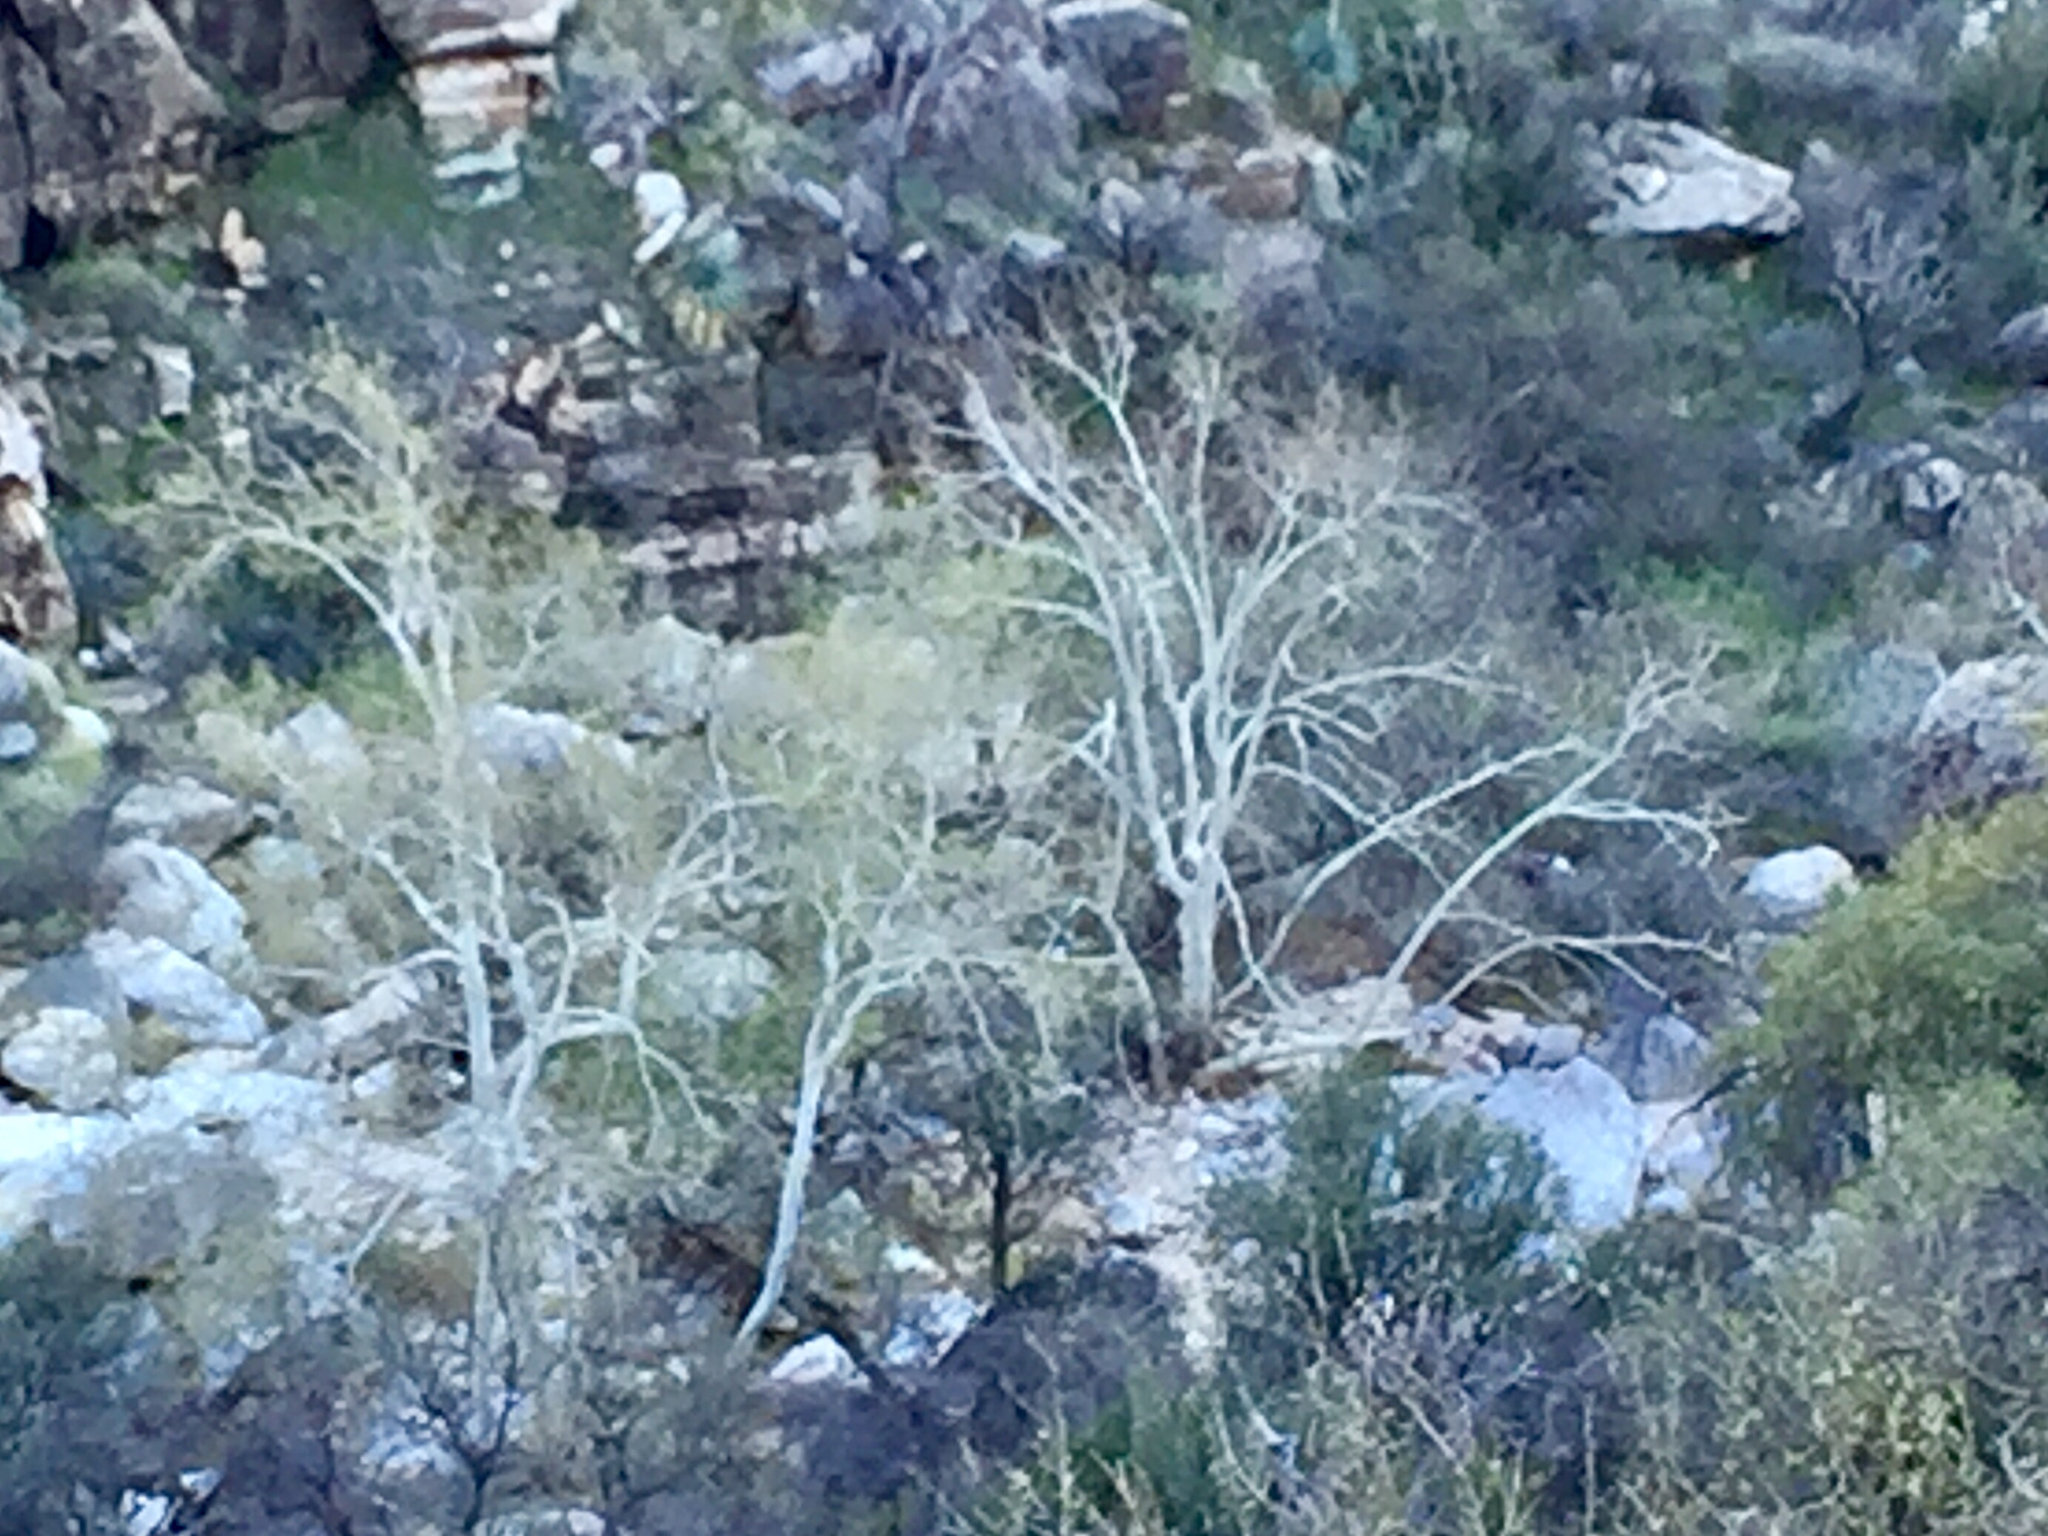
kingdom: Plantae
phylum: Tracheophyta
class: Magnoliopsida
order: Proteales
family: Platanaceae
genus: Platanus
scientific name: Platanus wrightii
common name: Arizona sycamore
